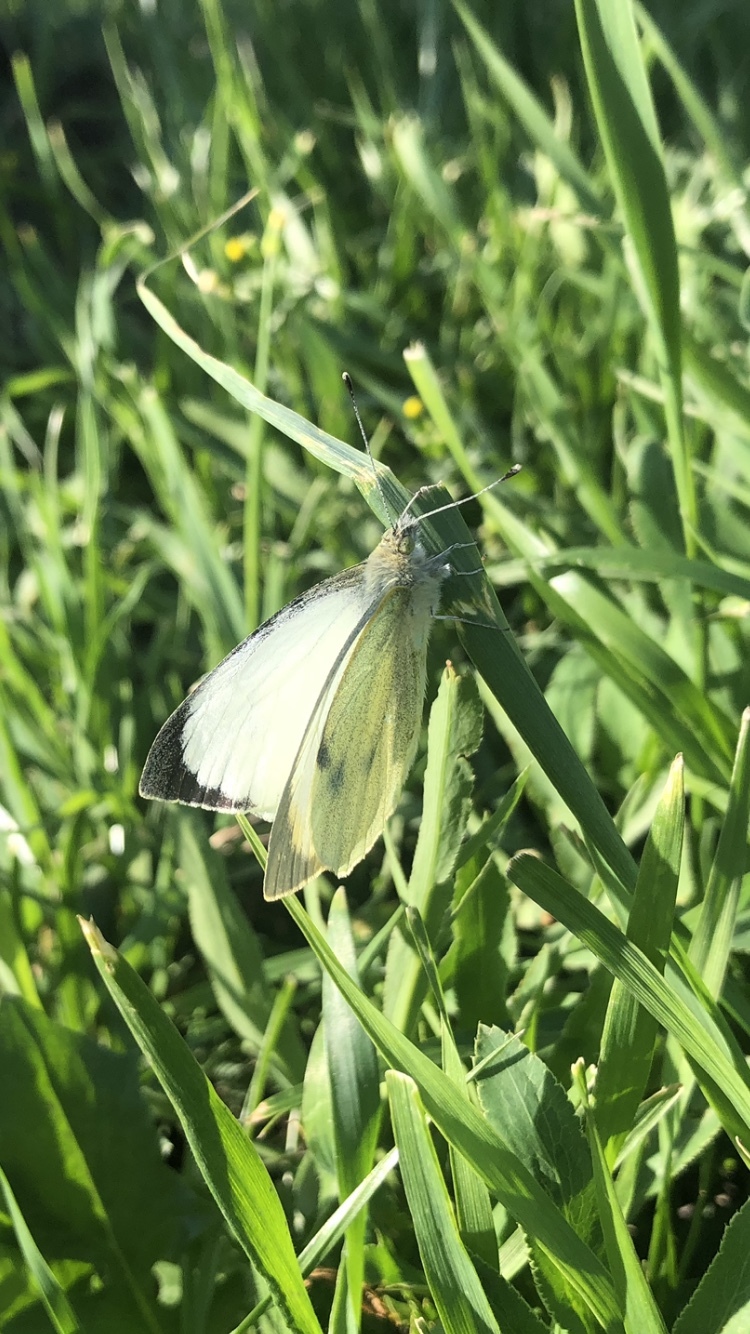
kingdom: Animalia
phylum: Arthropoda
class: Insecta
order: Lepidoptera
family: Pieridae
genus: Pieris
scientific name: Pieris brassicae
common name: Large white
